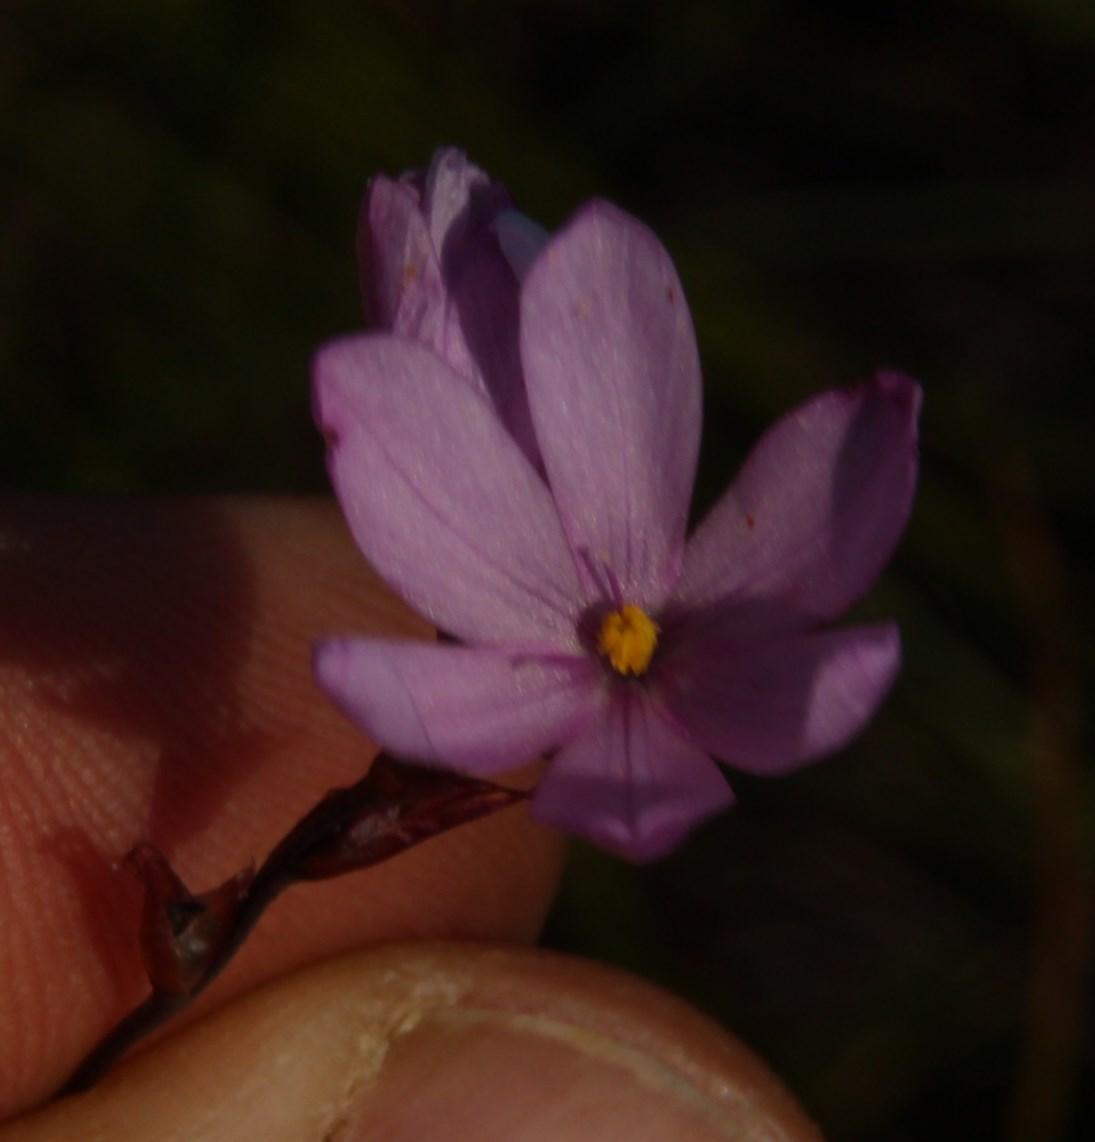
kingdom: Plantae
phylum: Tracheophyta
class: Liliopsida
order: Asparagales
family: Iridaceae
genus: Ixia
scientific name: Ixia micrandra
